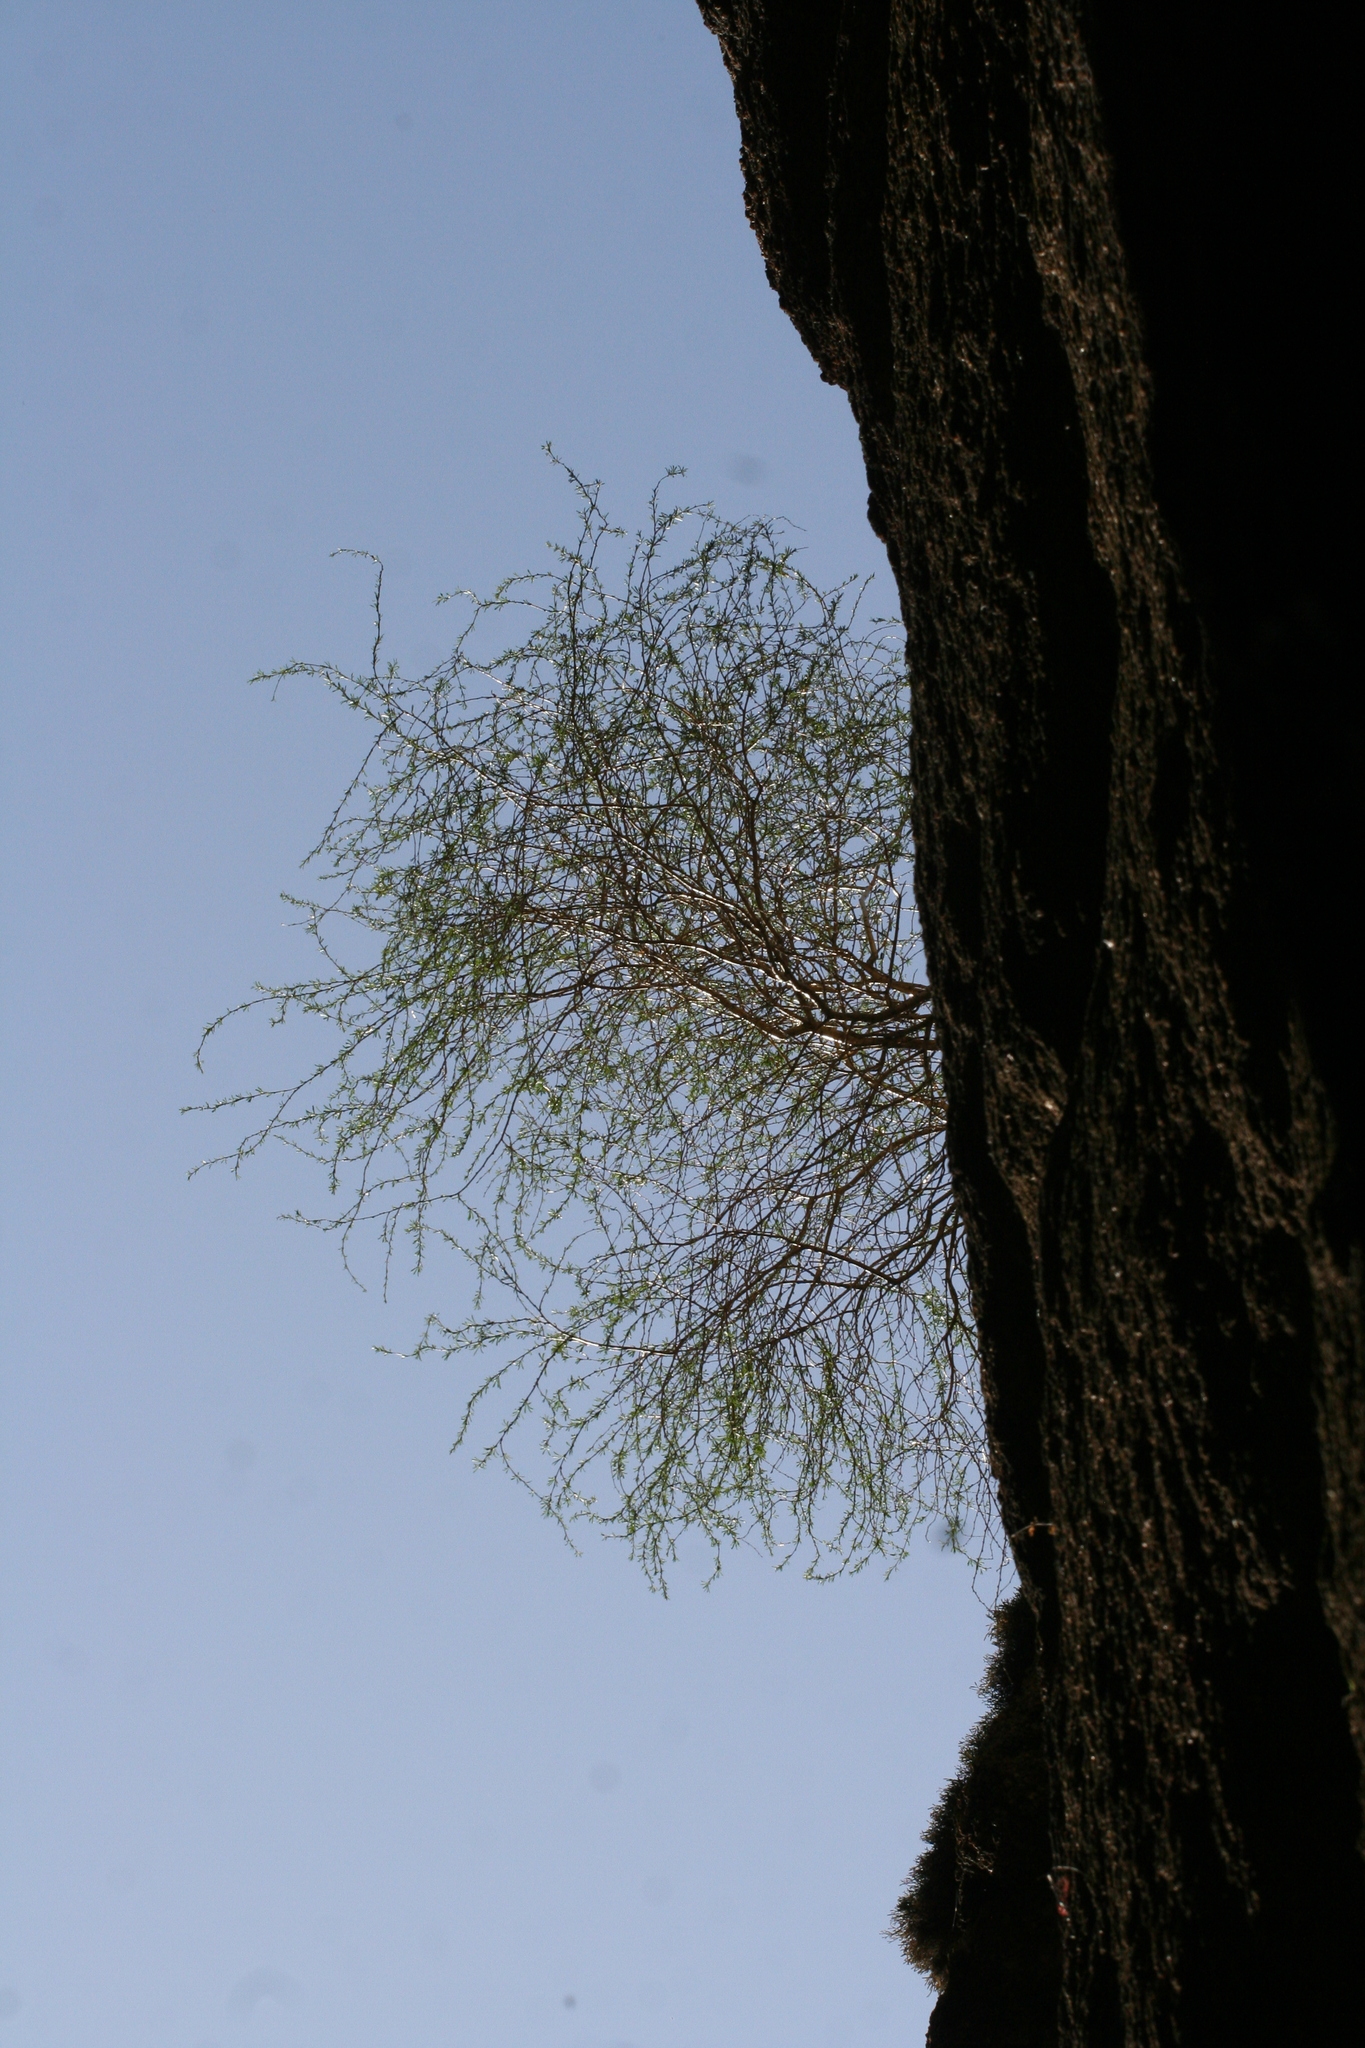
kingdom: Plantae
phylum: Tracheophyta
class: Magnoliopsida
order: Fabales
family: Fabaceae
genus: Caragana
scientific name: Caragana pygmaea
